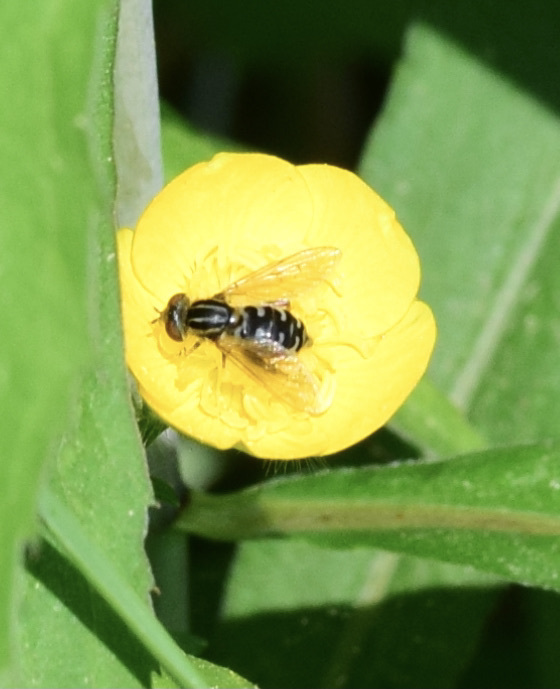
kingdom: Animalia
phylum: Arthropoda
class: Insecta
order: Diptera
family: Syrphidae
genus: Eurimyia
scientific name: Eurimyia stipatus
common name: Long-nosed swamp fly
